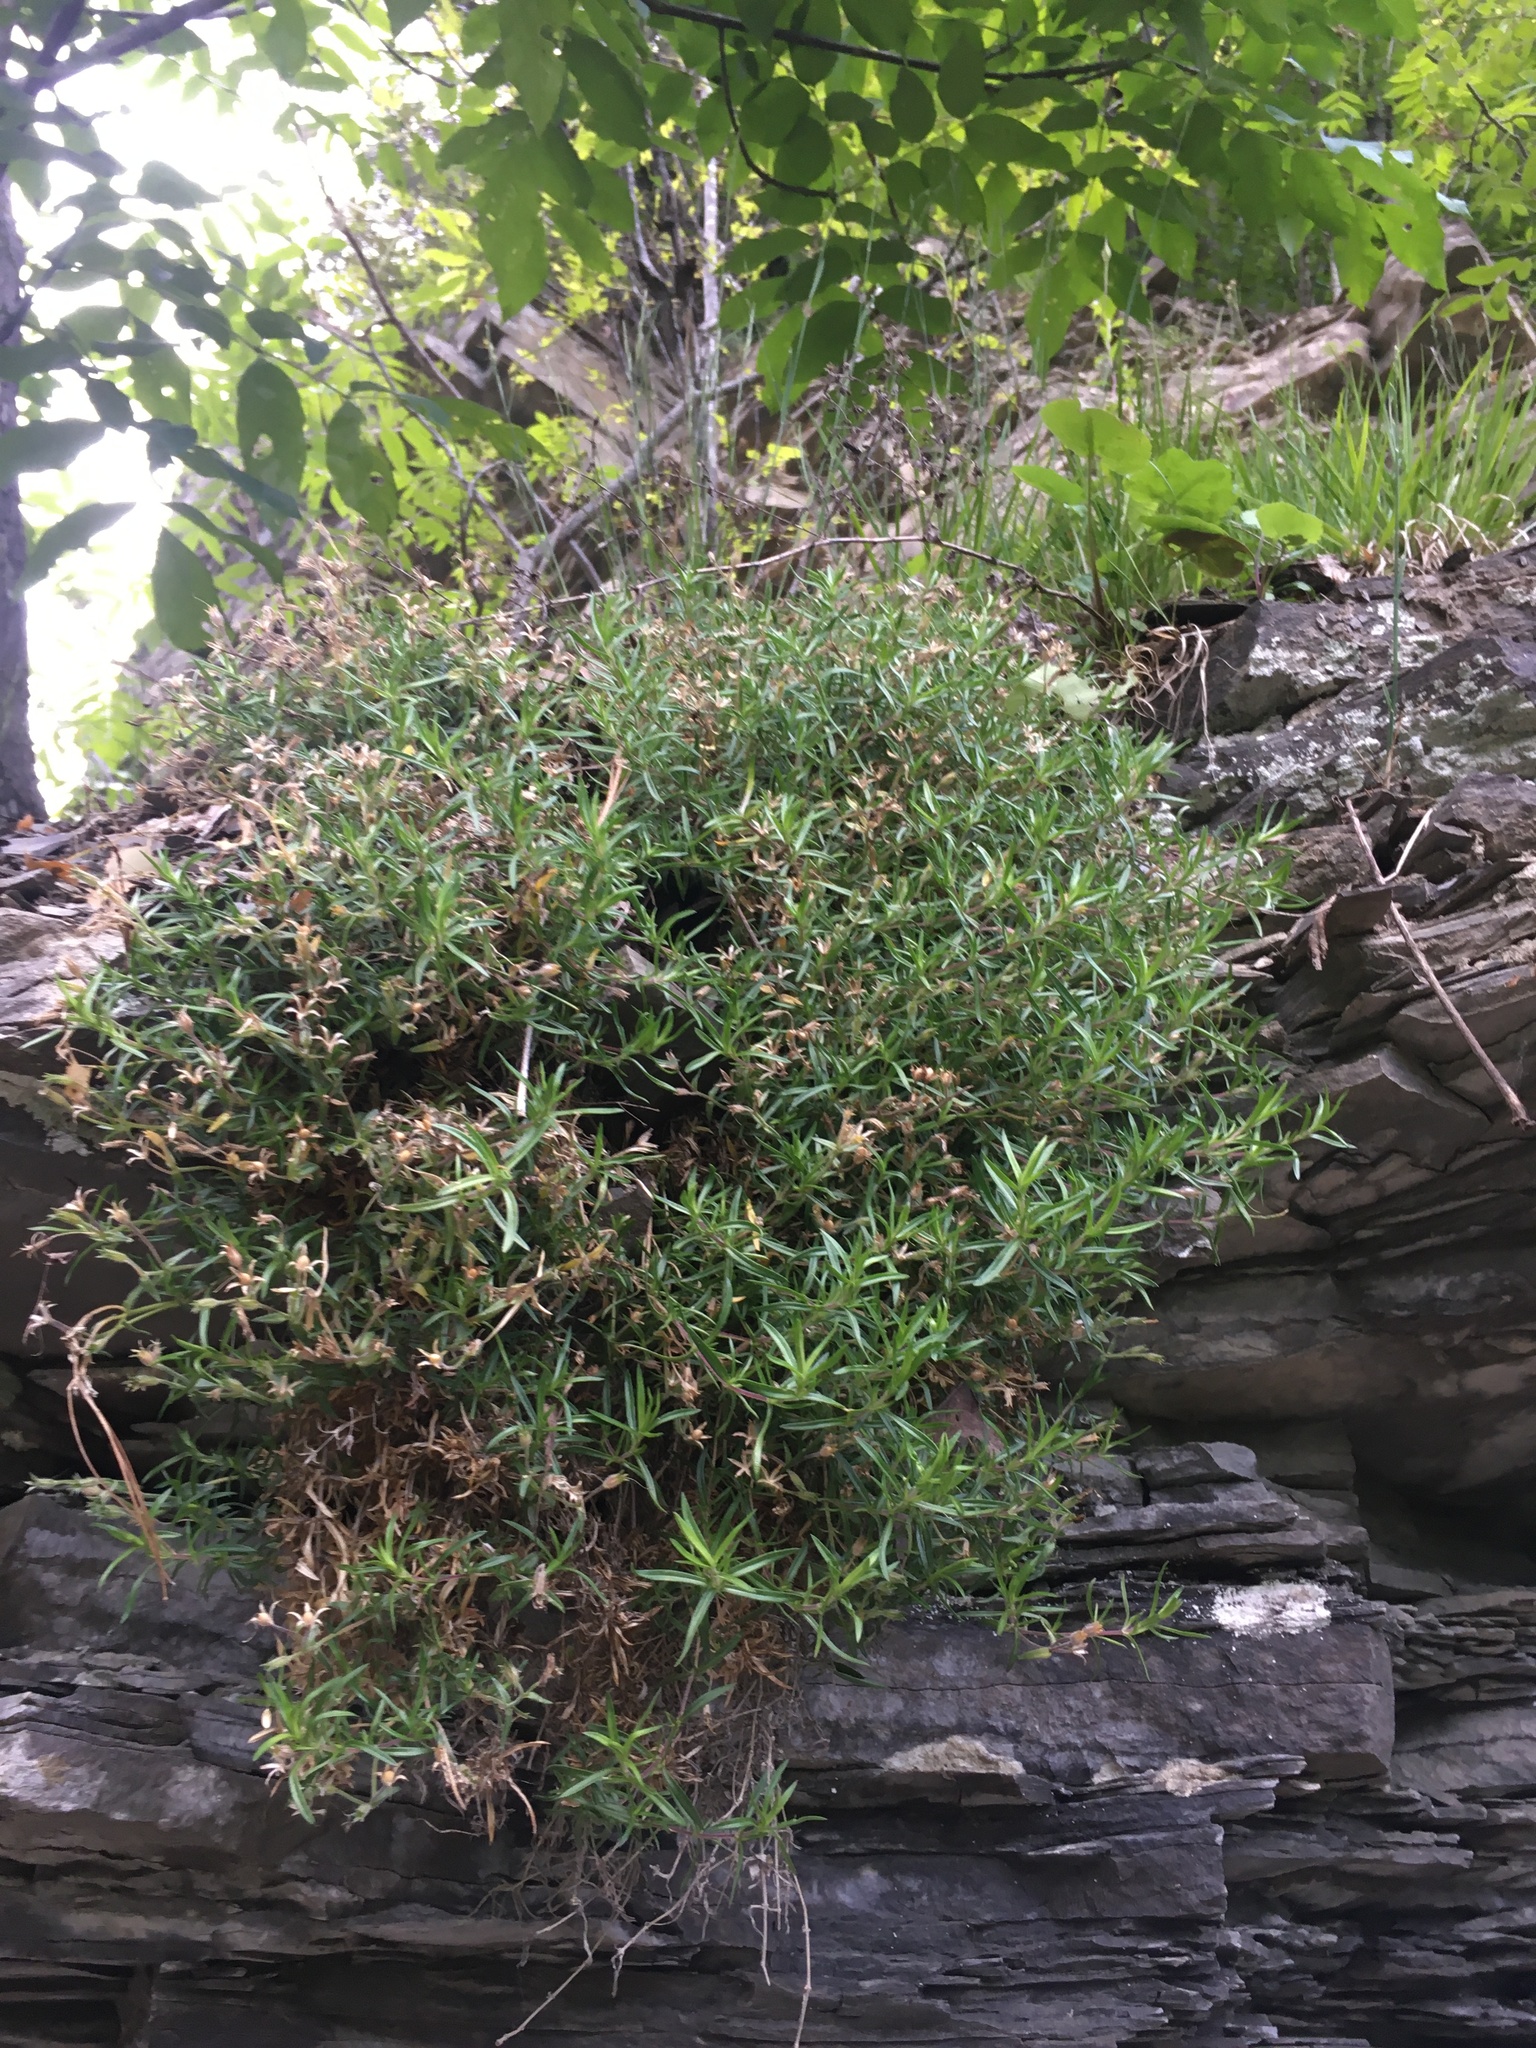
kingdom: Plantae
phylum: Tracheophyta
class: Magnoliopsida
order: Ericales
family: Polemoniaceae
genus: Phlox
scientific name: Phlox subulata
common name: Moss phlox
